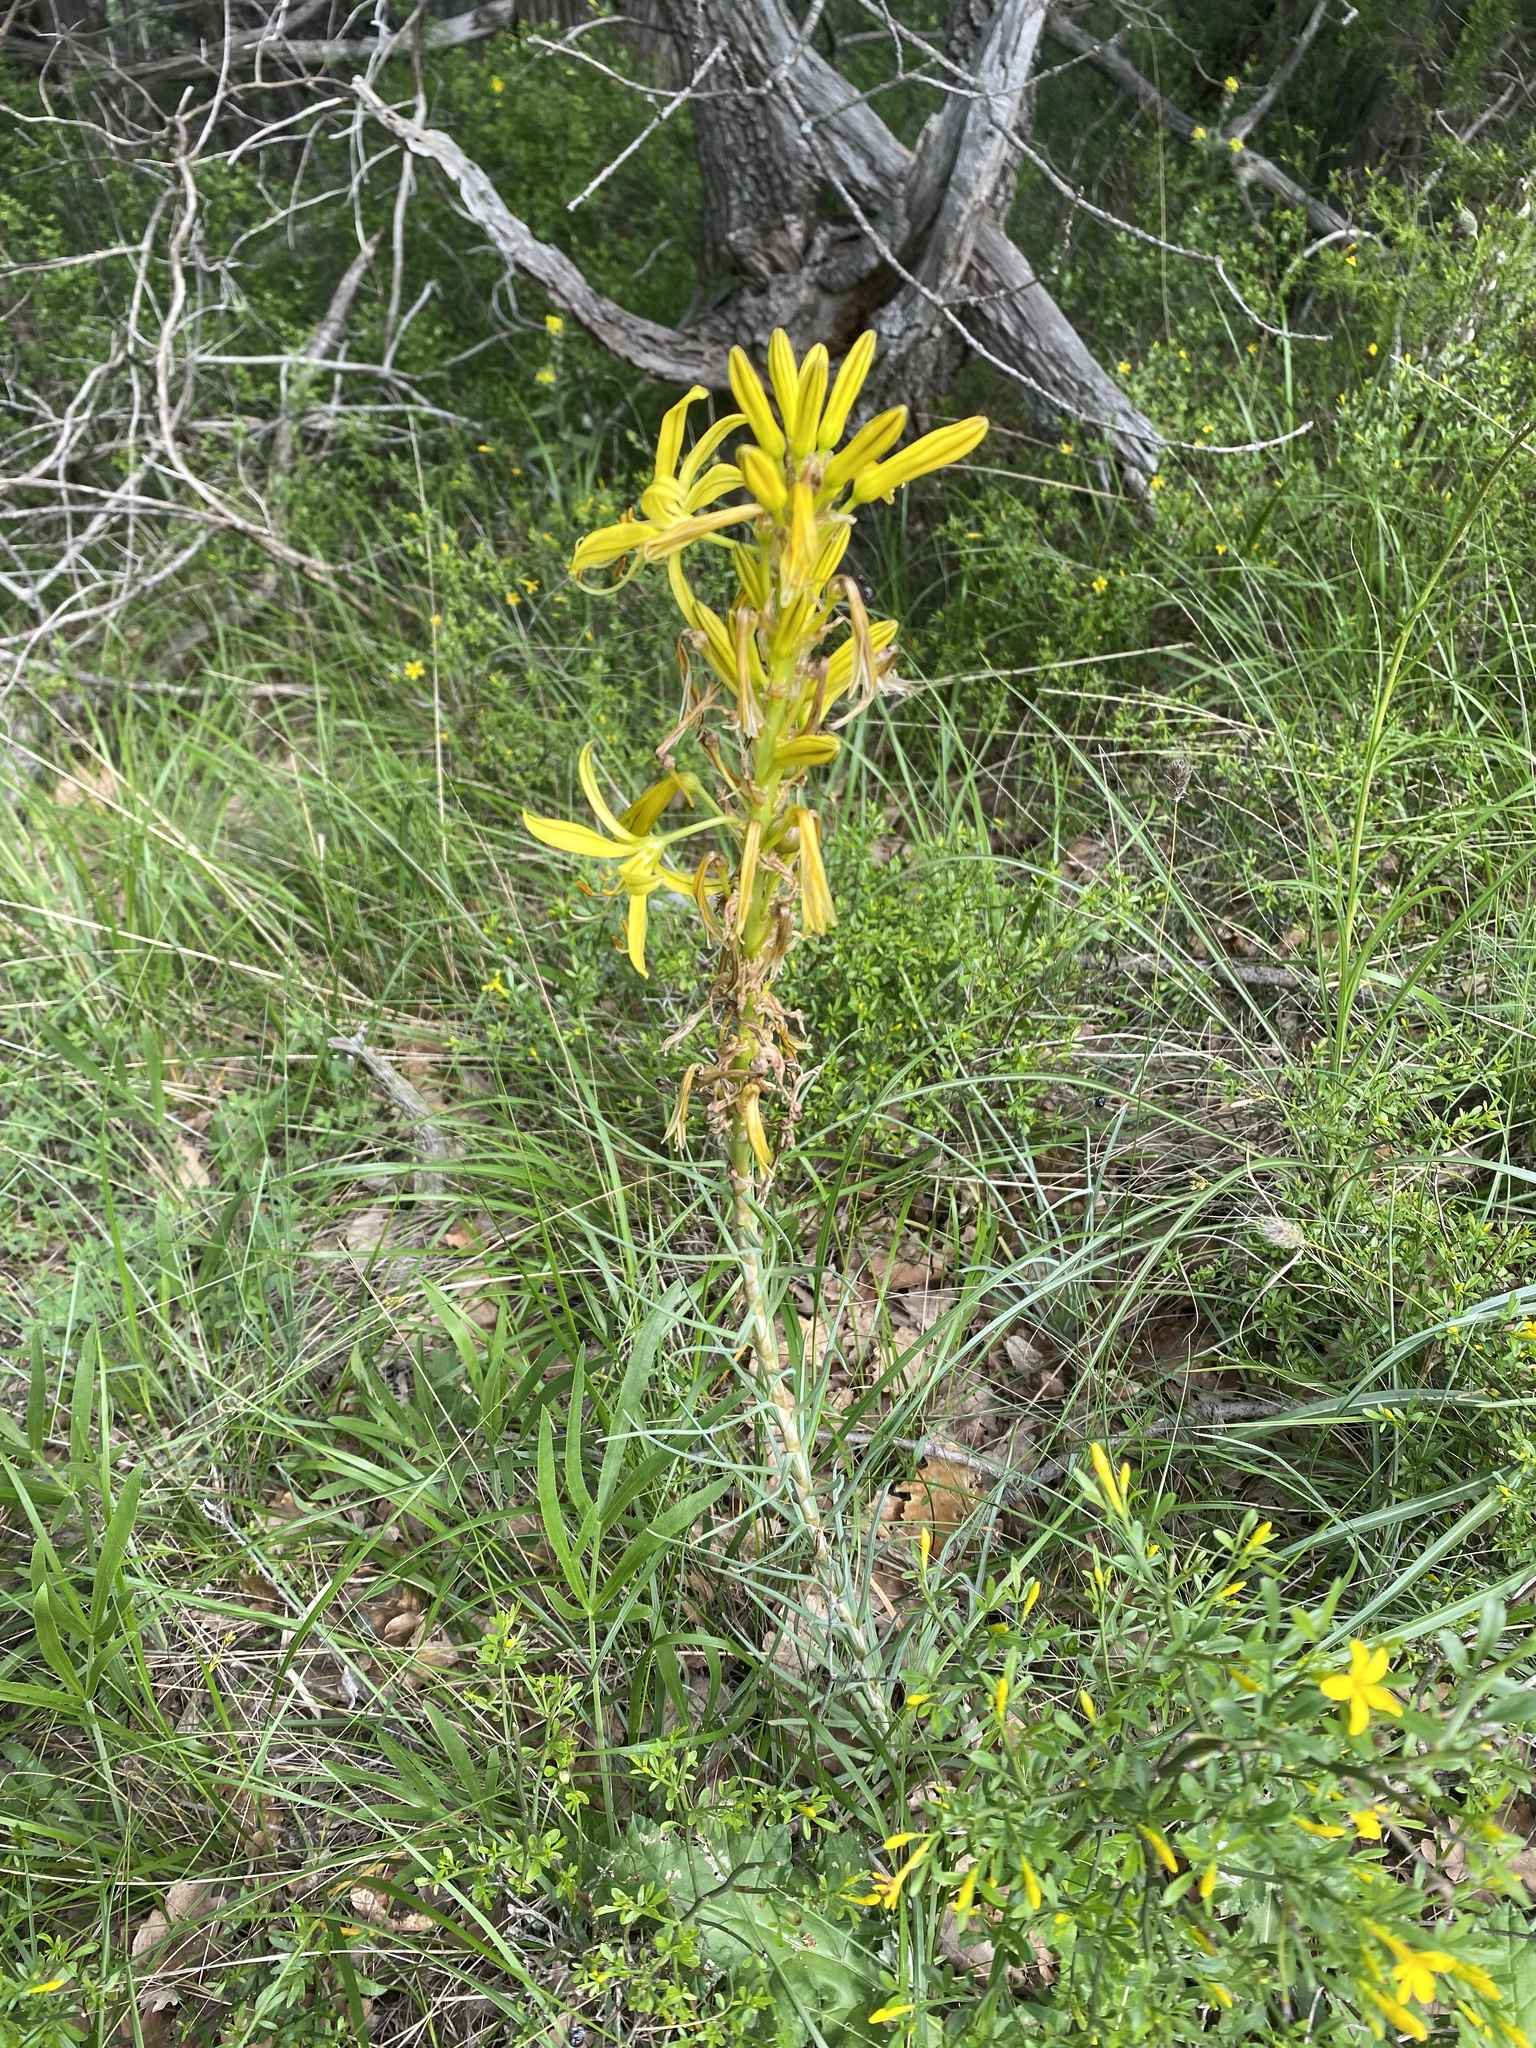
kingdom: Plantae
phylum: Tracheophyta
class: Liliopsida
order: Asparagales
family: Asphodelaceae
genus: Asphodeline
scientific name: Asphodeline lutea
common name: Yellow asphodel
